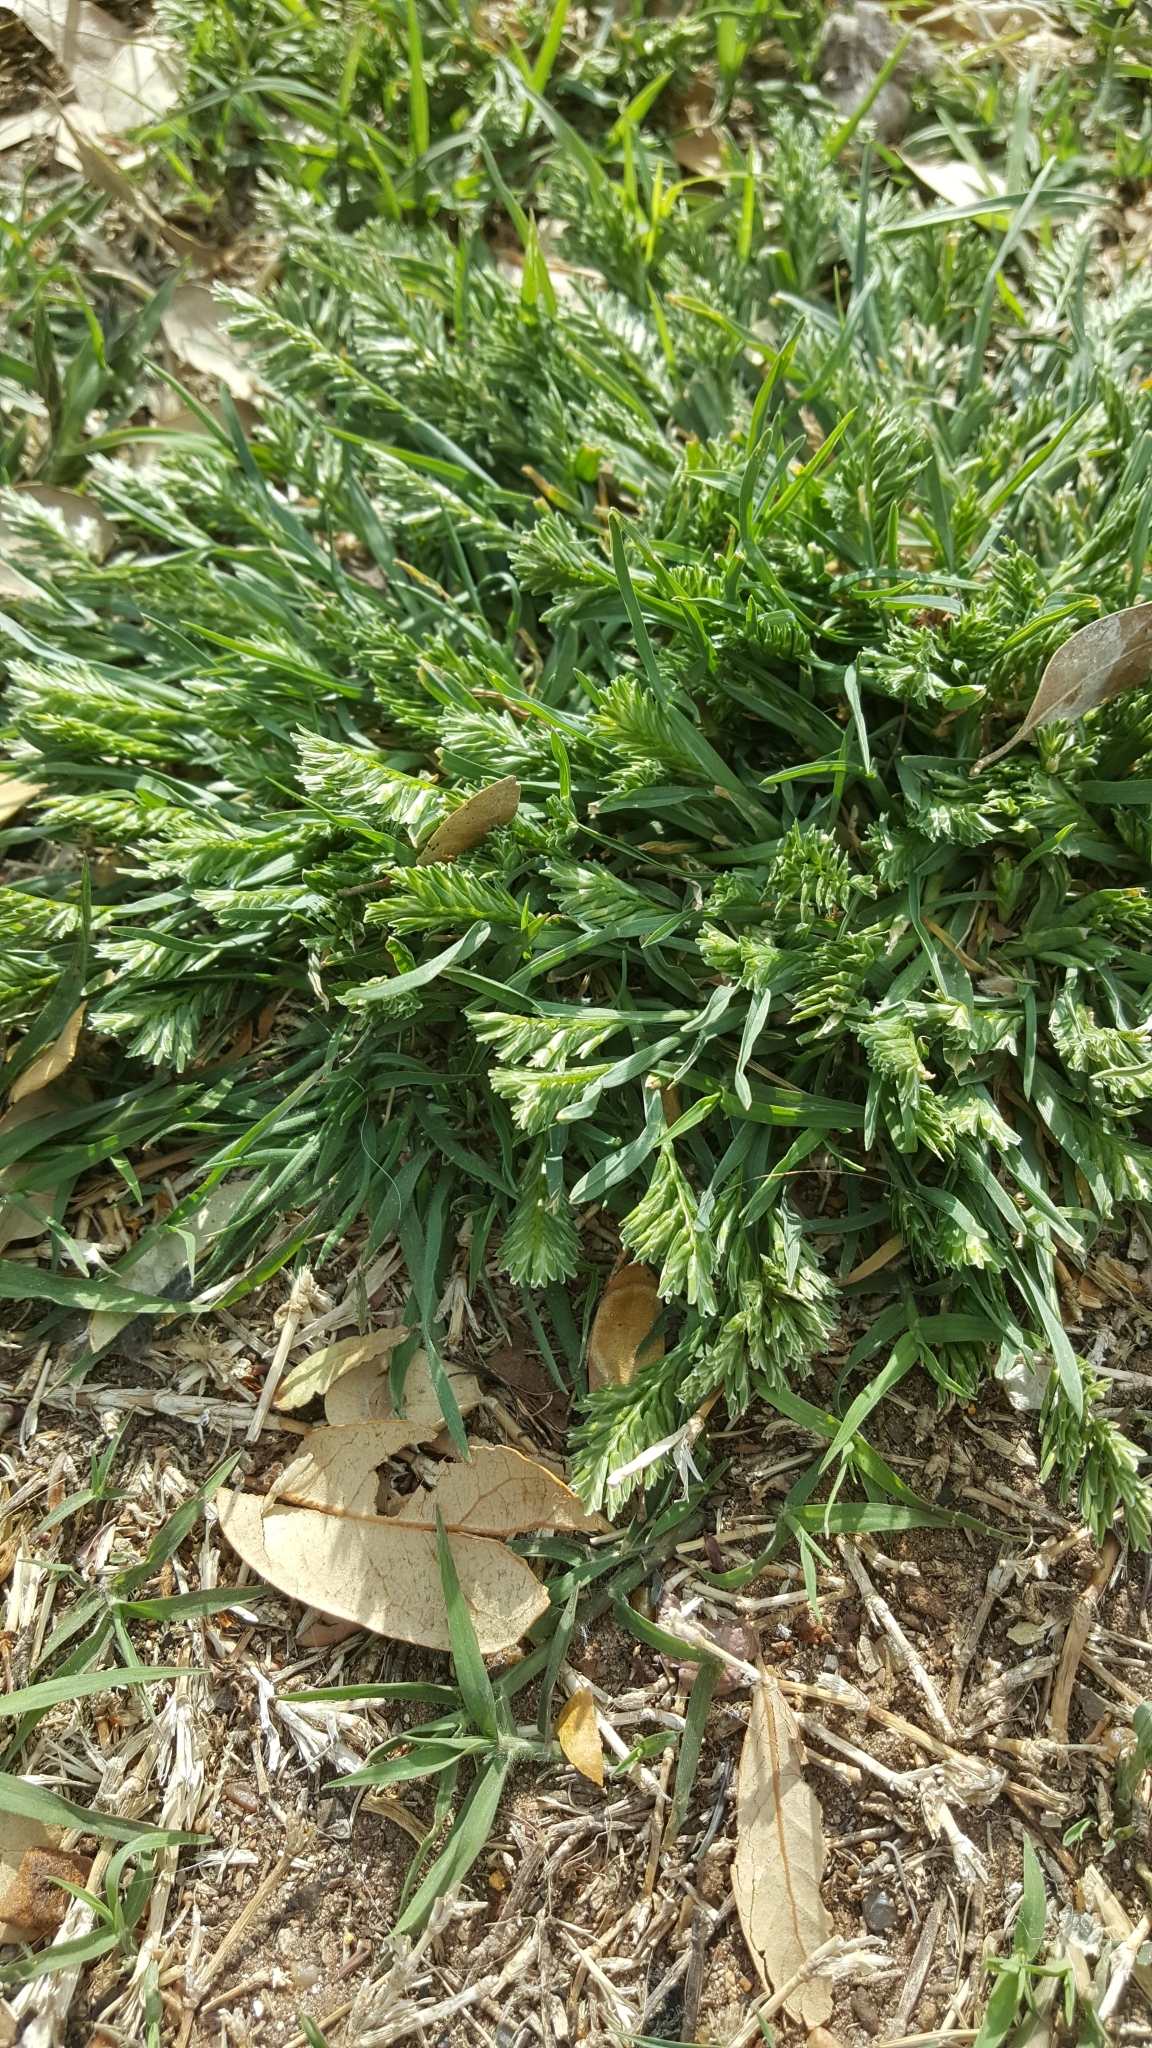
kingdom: Plantae
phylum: Tracheophyta
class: Liliopsida
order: Poales
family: Poaceae
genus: Sclerochloa
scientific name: Sclerochloa dura
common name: Common hardgrass
